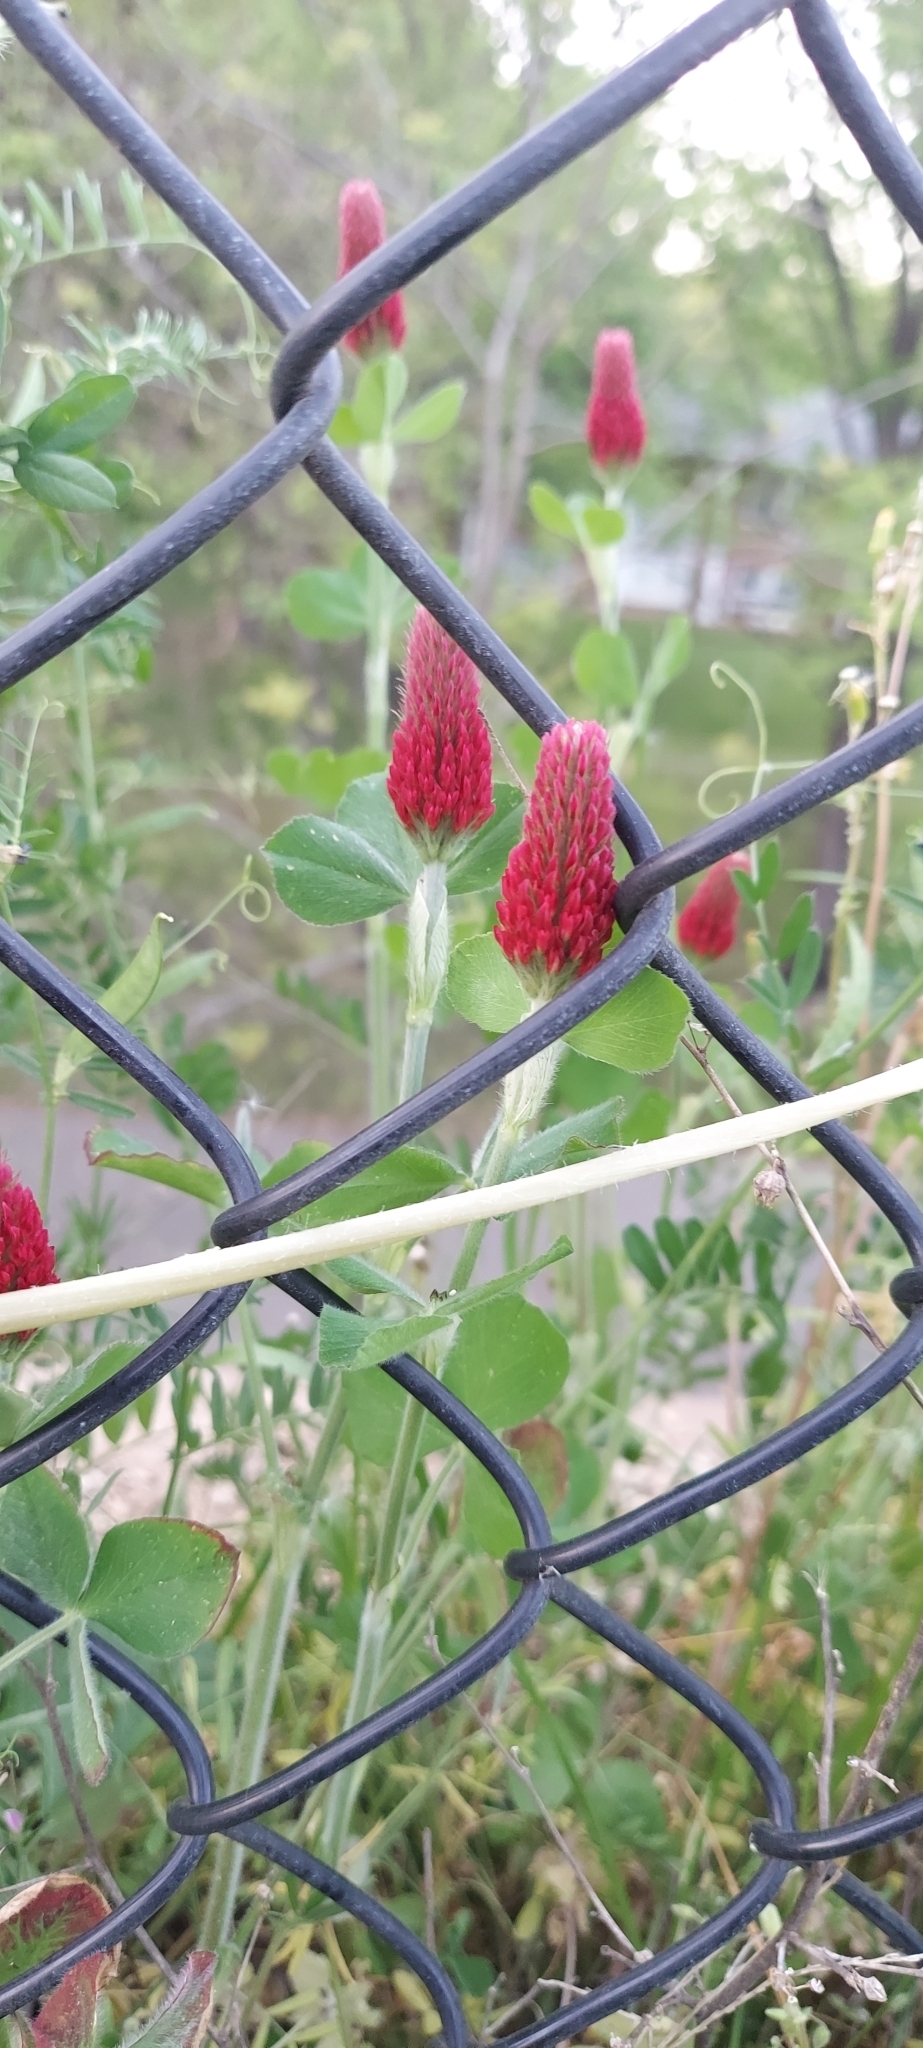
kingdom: Plantae
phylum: Tracheophyta
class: Magnoliopsida
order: Fabales
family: Fabaceae
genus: Trifolium
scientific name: Trifolium incarnatum
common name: Crimson clover
